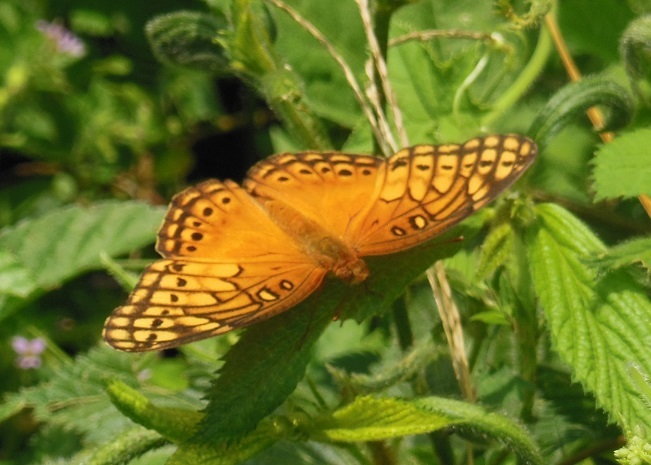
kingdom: Animalia
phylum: Arthropoda
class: Insecta
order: Lepidoptera
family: Nymphalidae
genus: Euptoieta
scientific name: Euptoieta hegesia
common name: Mexican fritillary
